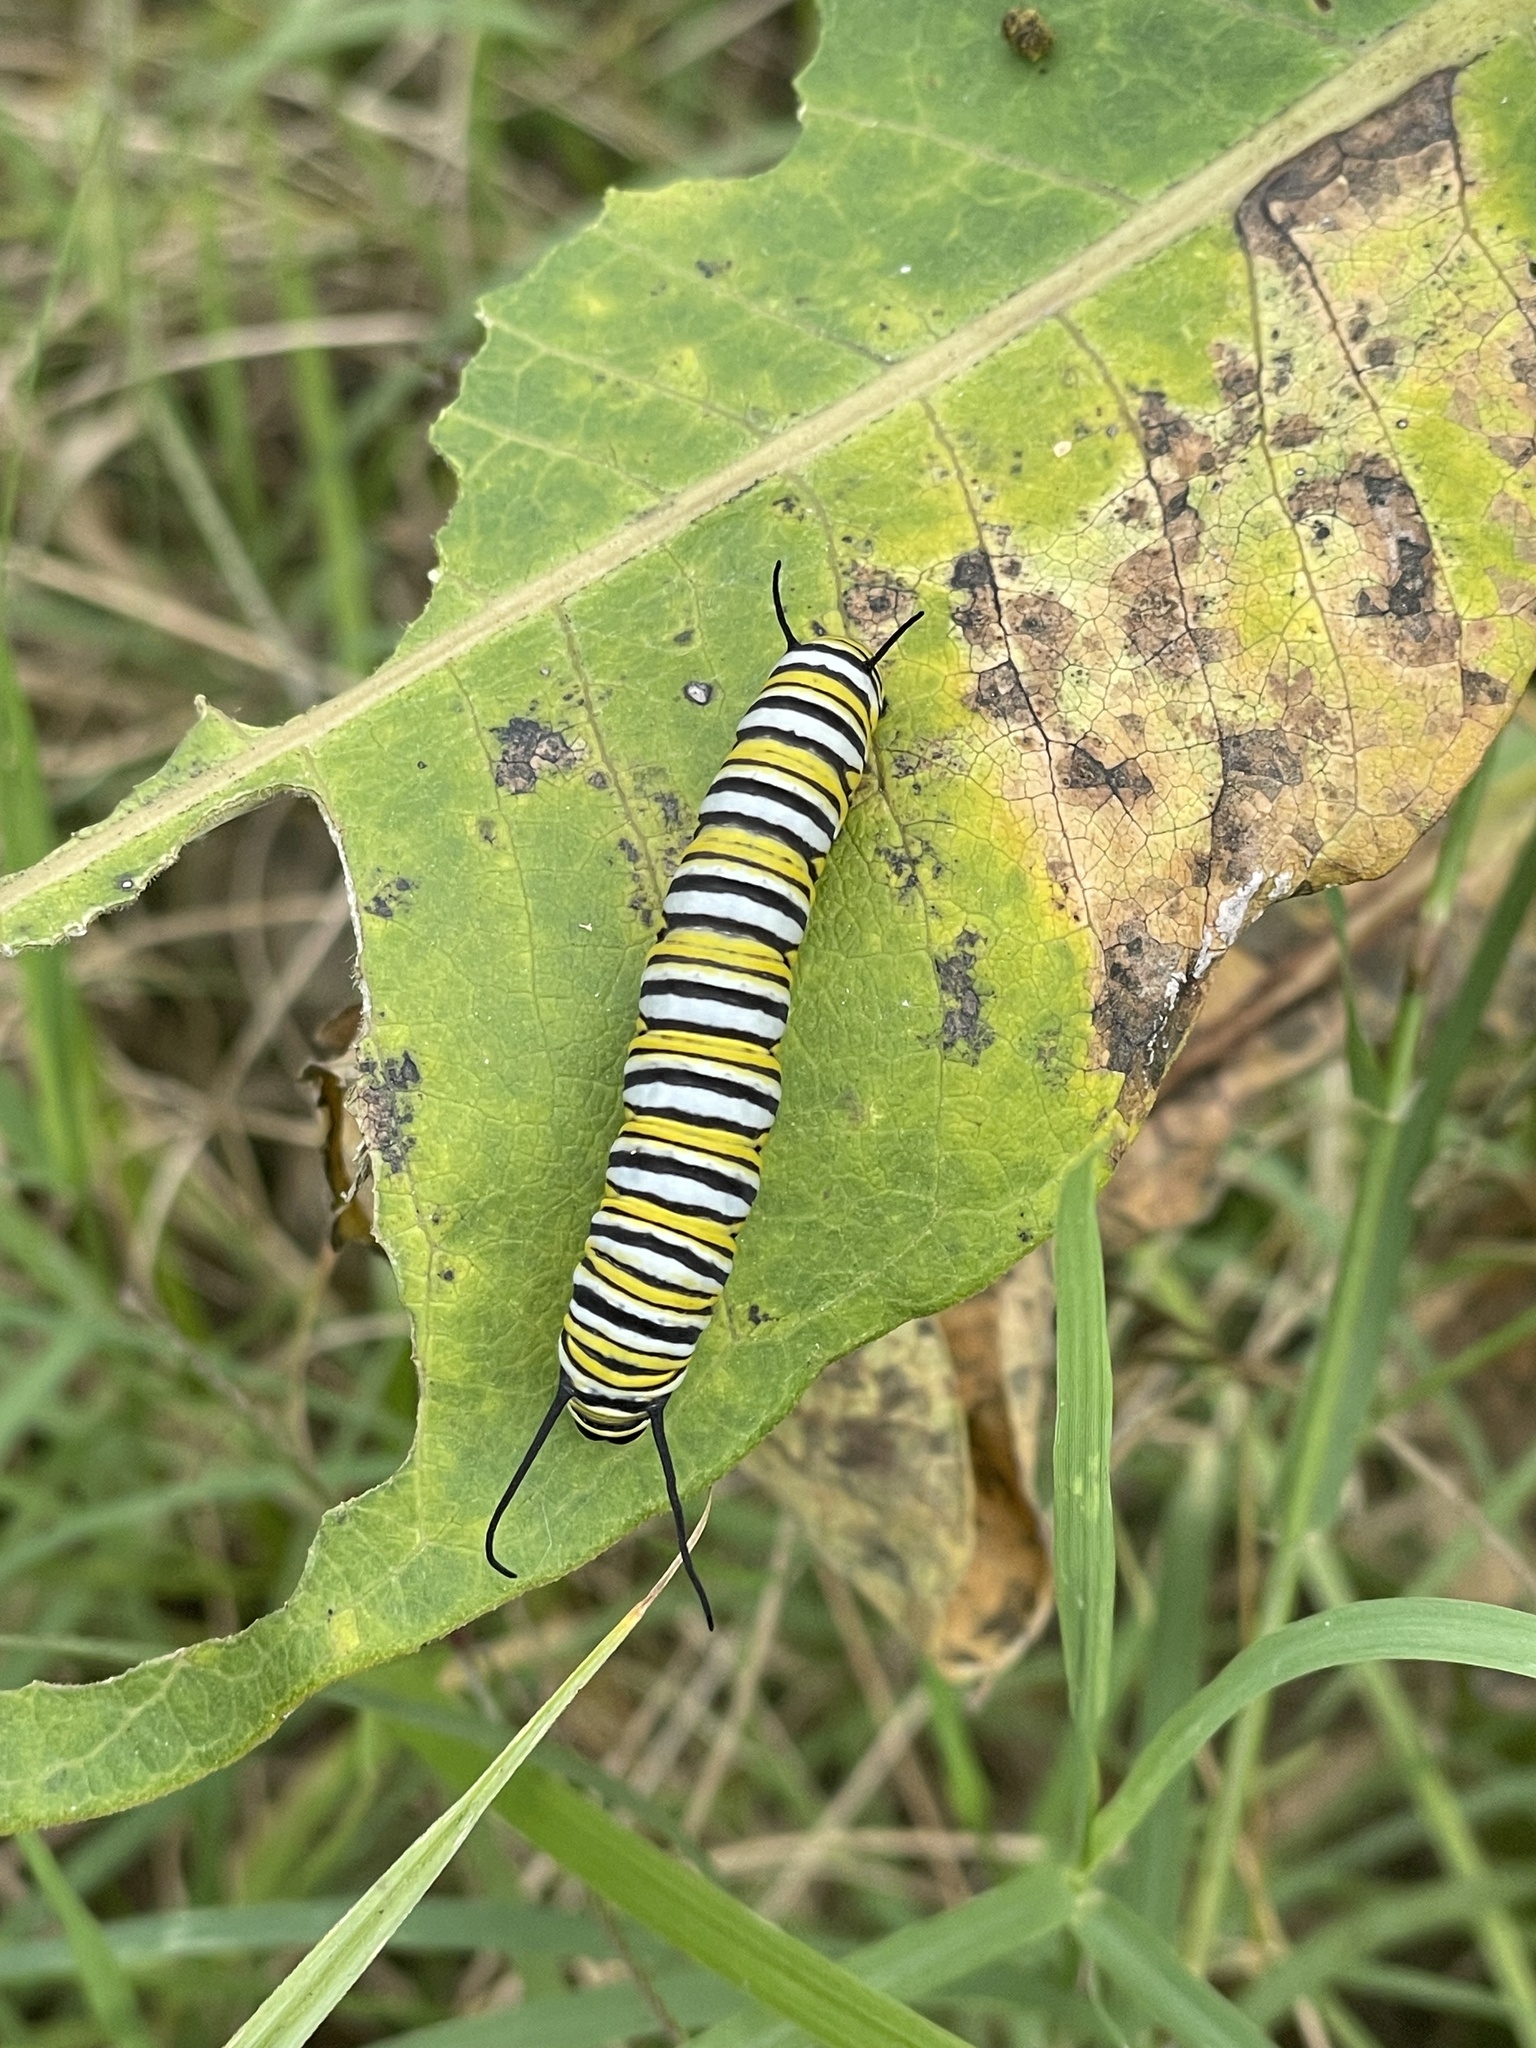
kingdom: Animalia
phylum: Arthropoda
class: Insecta
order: Lepidoptera
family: Nymphalidae
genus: Danaus
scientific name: Danaus plexippus
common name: Monarch
